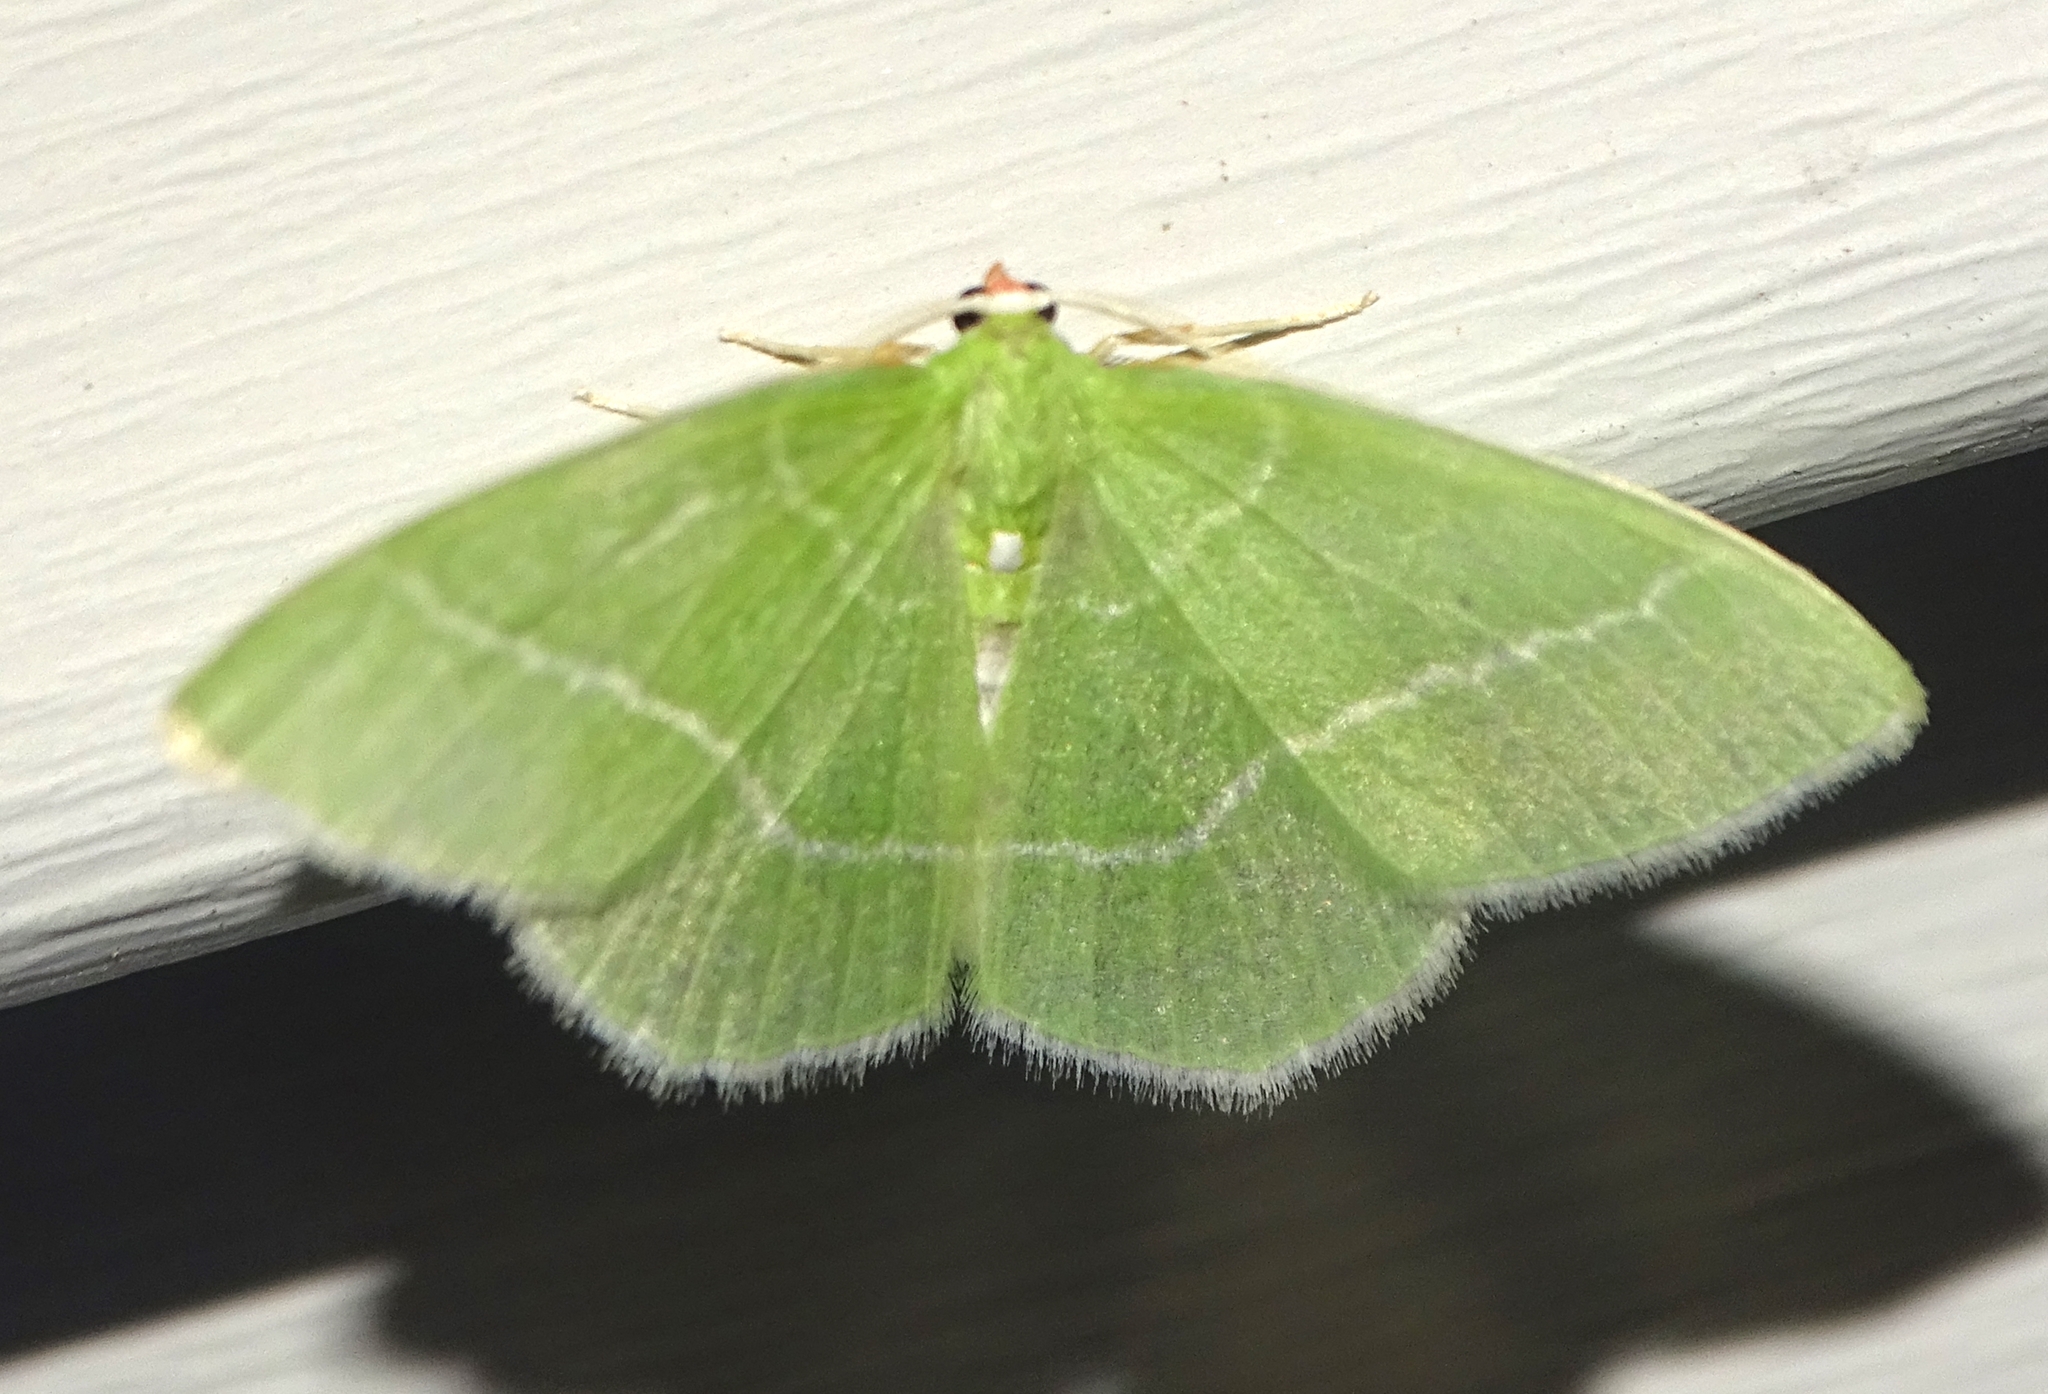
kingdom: Animalia
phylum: Arthropoda
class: Insecta
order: Lepidoptera
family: Geometridae
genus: Nemoria
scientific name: Nemoria mimosaria
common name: White-fringed emerald
